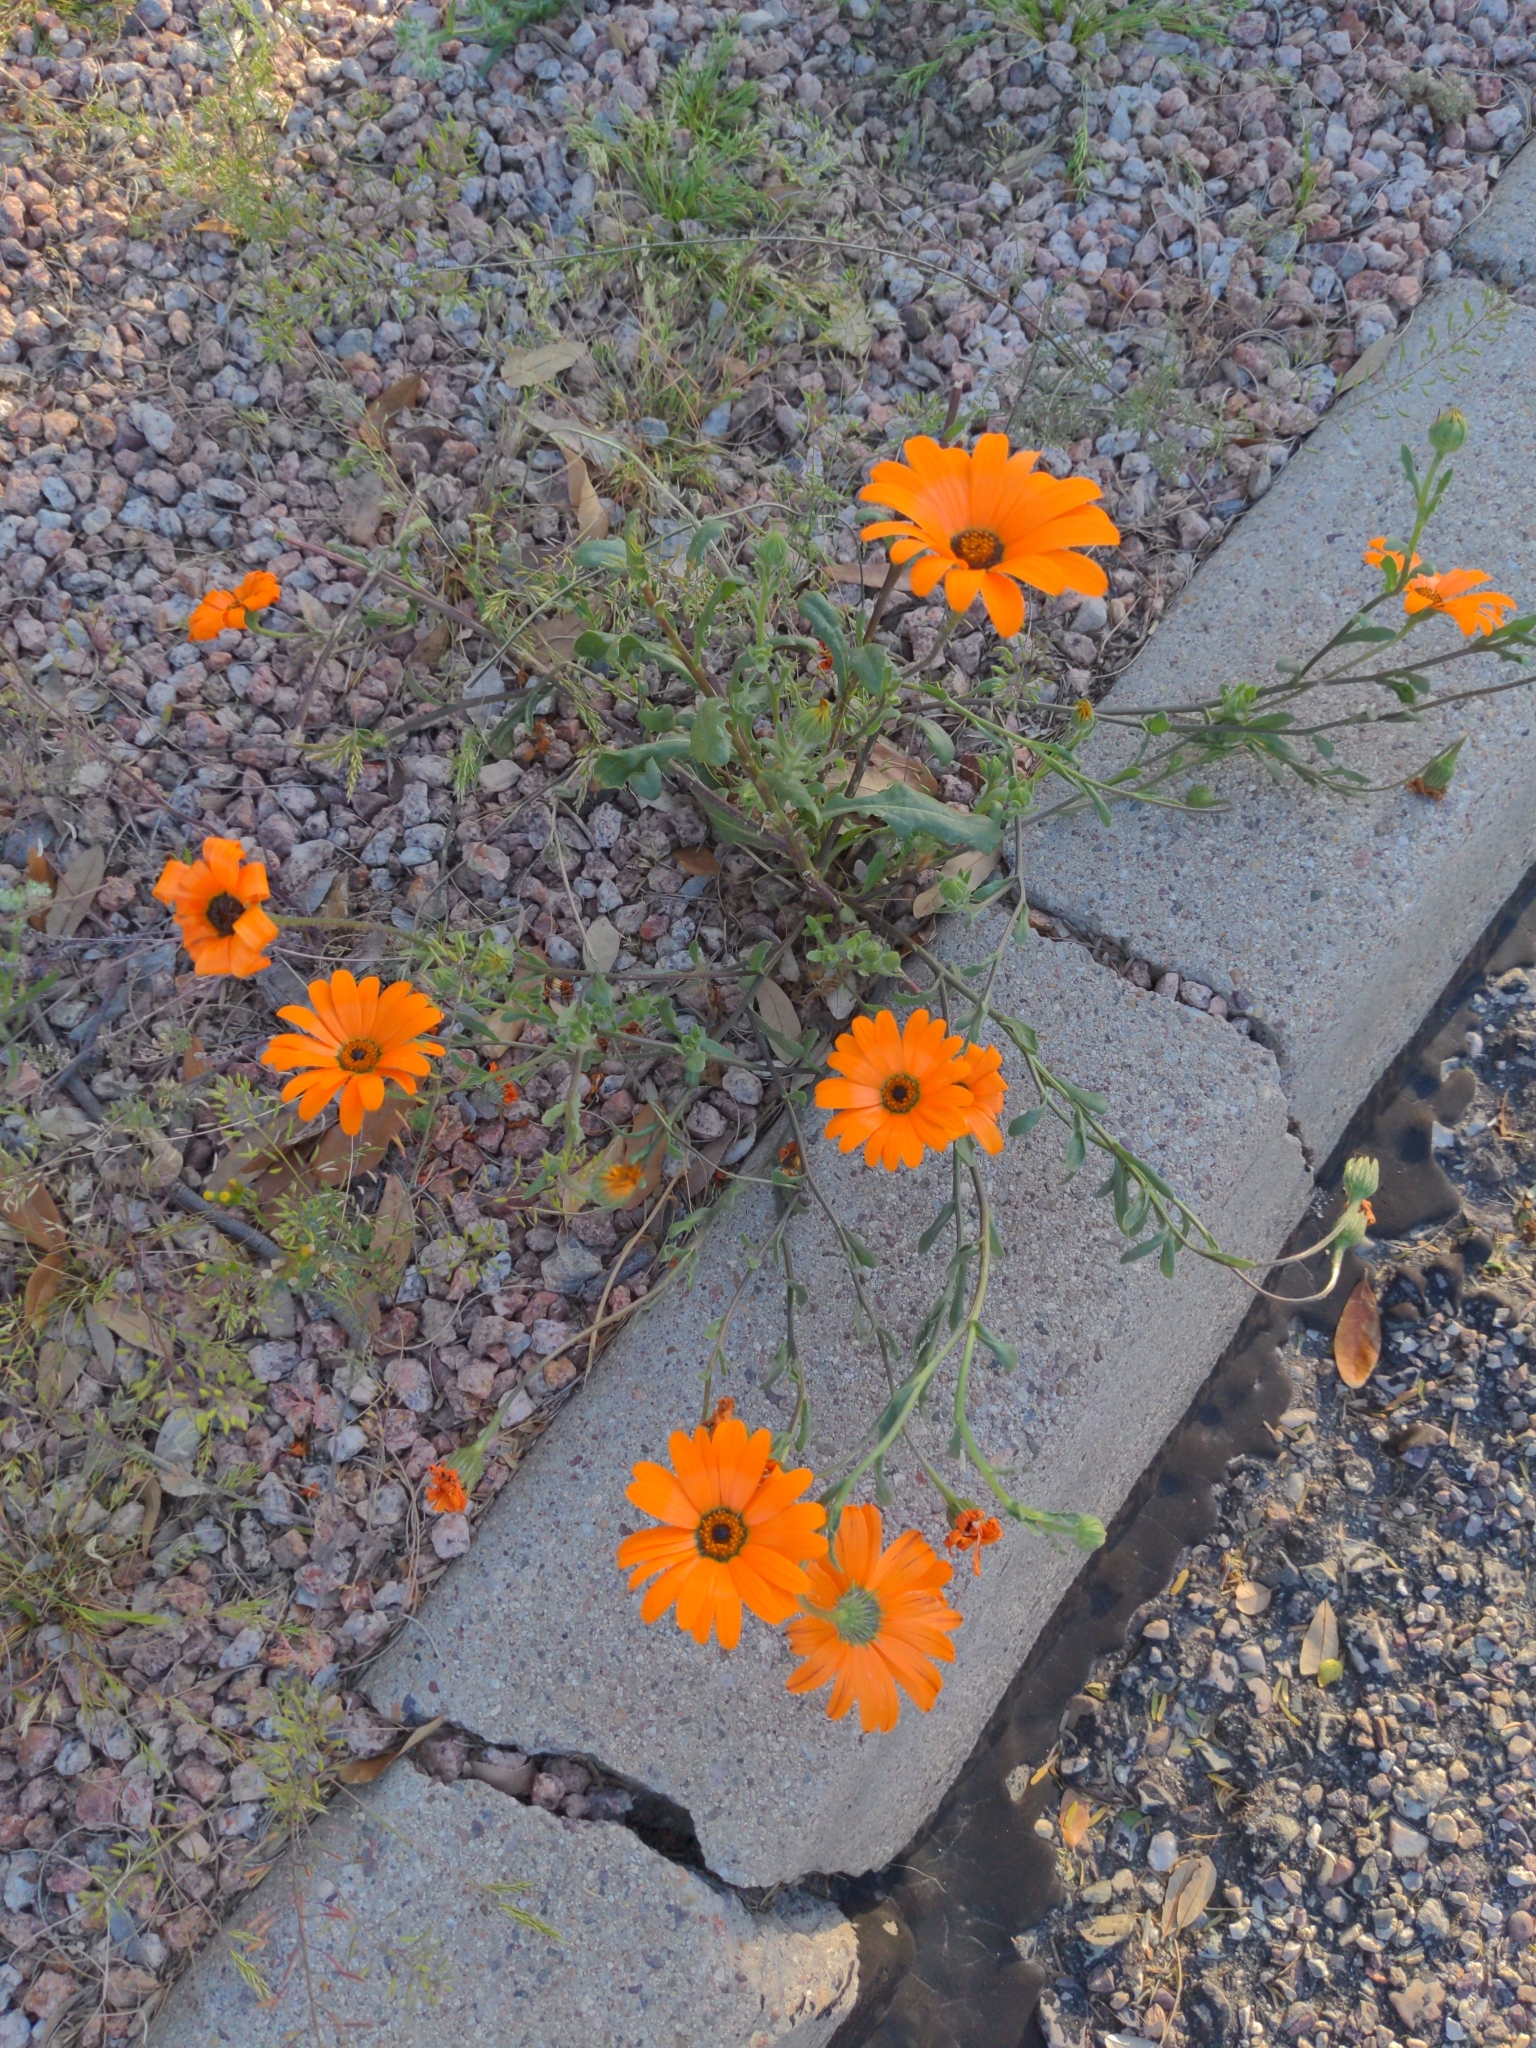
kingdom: Plantae
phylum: Tracheophyta
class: Magnoliopsida
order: Asterales
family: Asteraceae
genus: Dimorphotheca
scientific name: Dimorphotheca sinuata
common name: Glandular cape marigold
